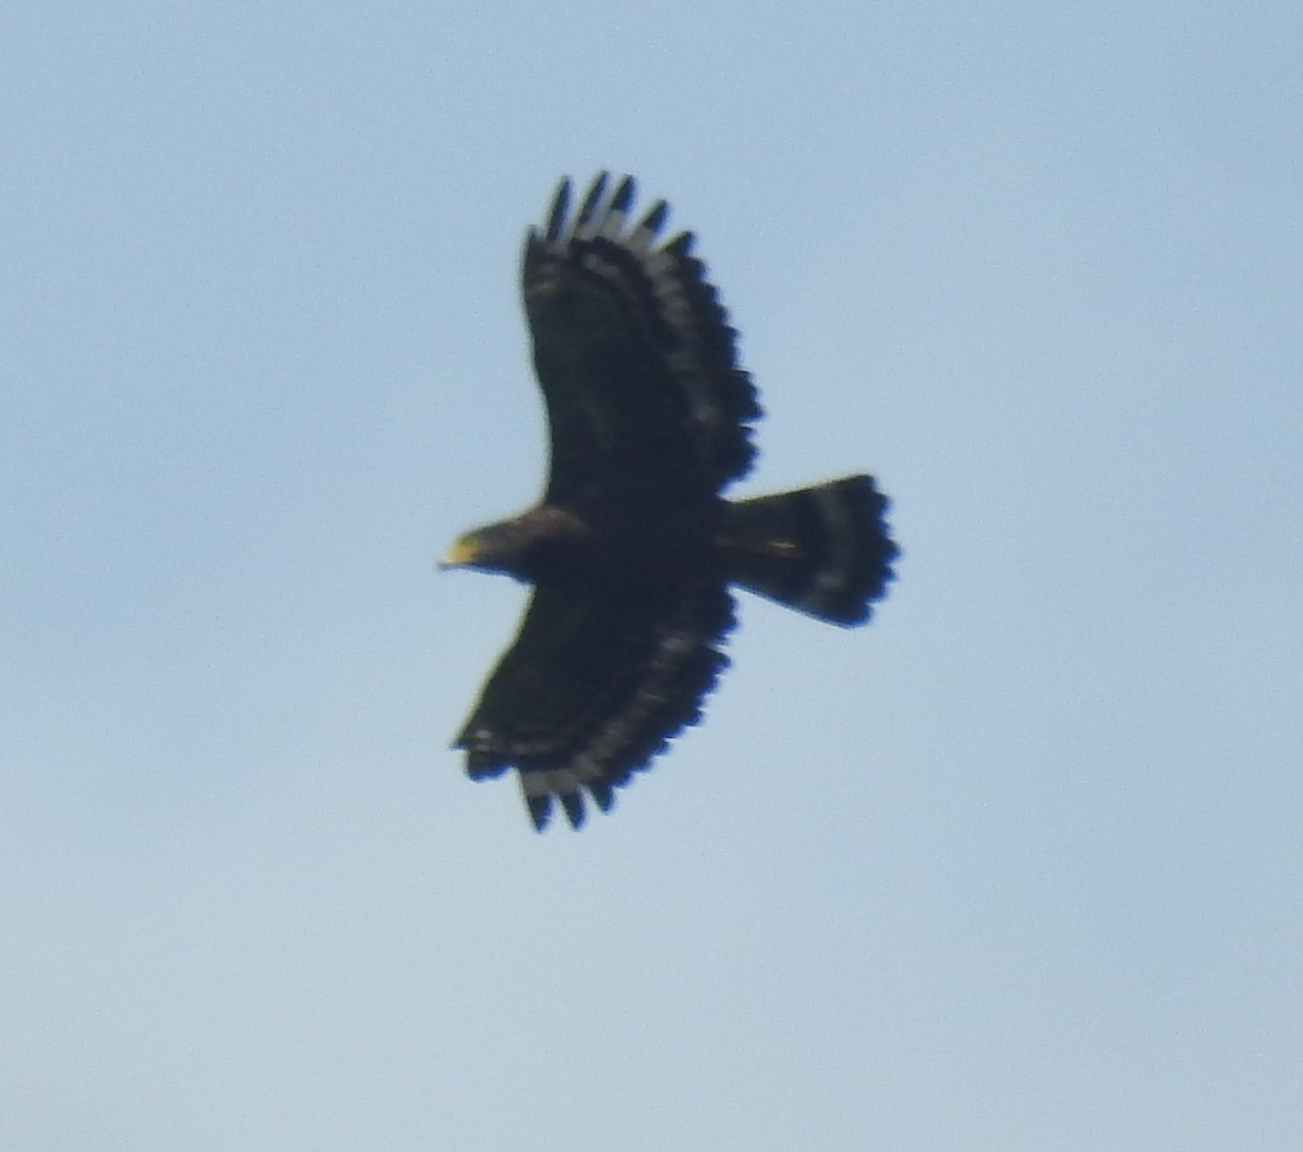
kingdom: Animalia
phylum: Chordata
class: Aves
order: Accipitriformes
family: Accipitridae
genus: Spilornis
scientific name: Spilornis cheela
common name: Crested serpent eagle
